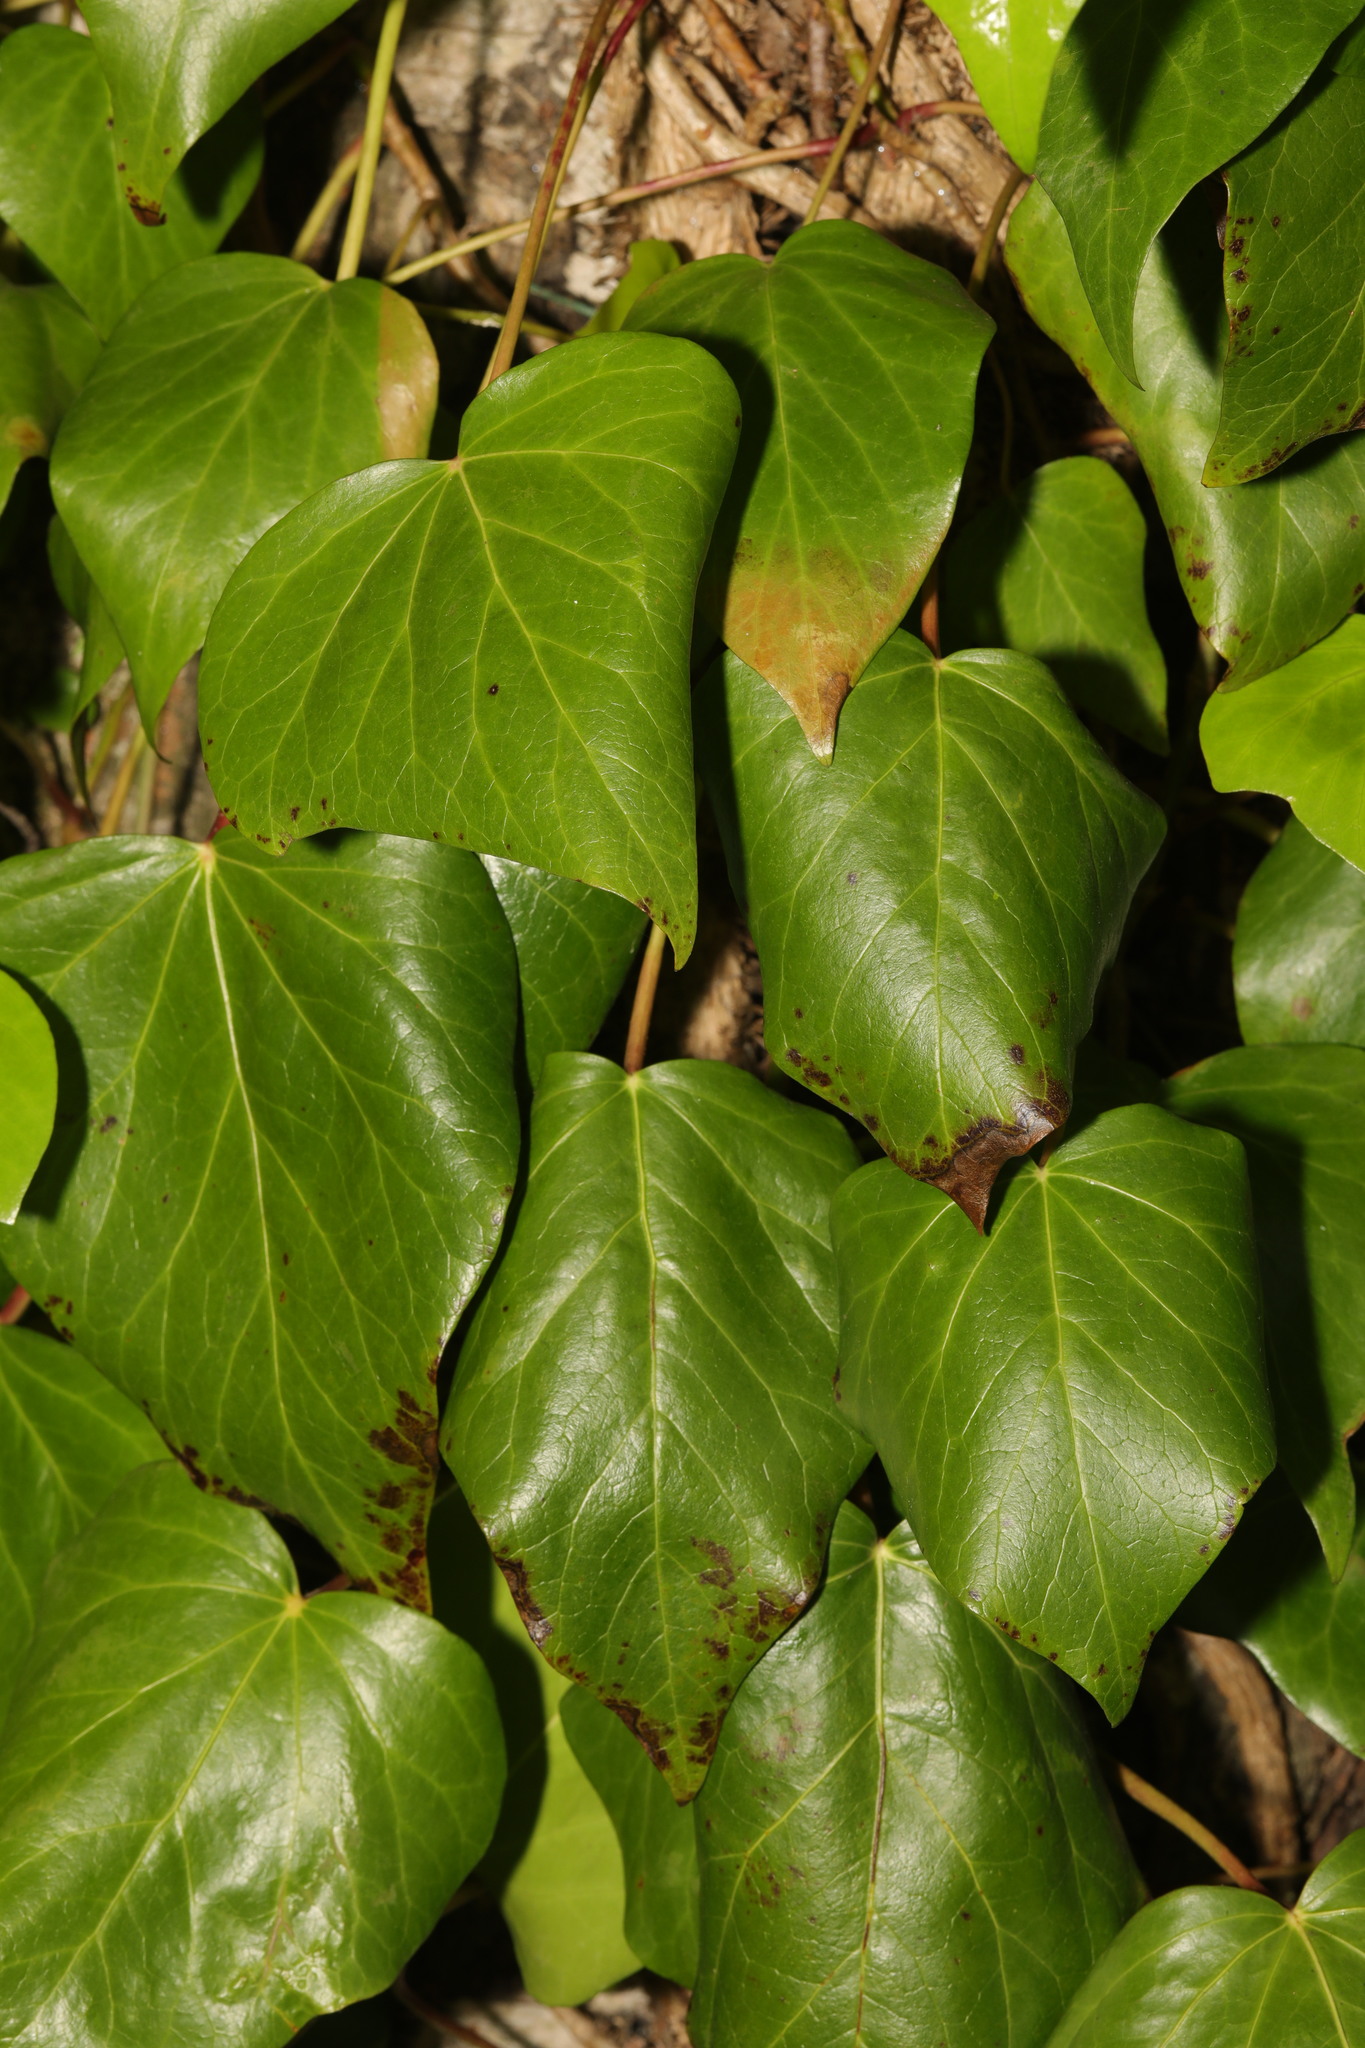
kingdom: Plantae
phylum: Tracheophyta
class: Magnoliopsida
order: Apiales
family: Araliaceae
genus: Hedera
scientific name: Hedera helix
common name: Ivy
